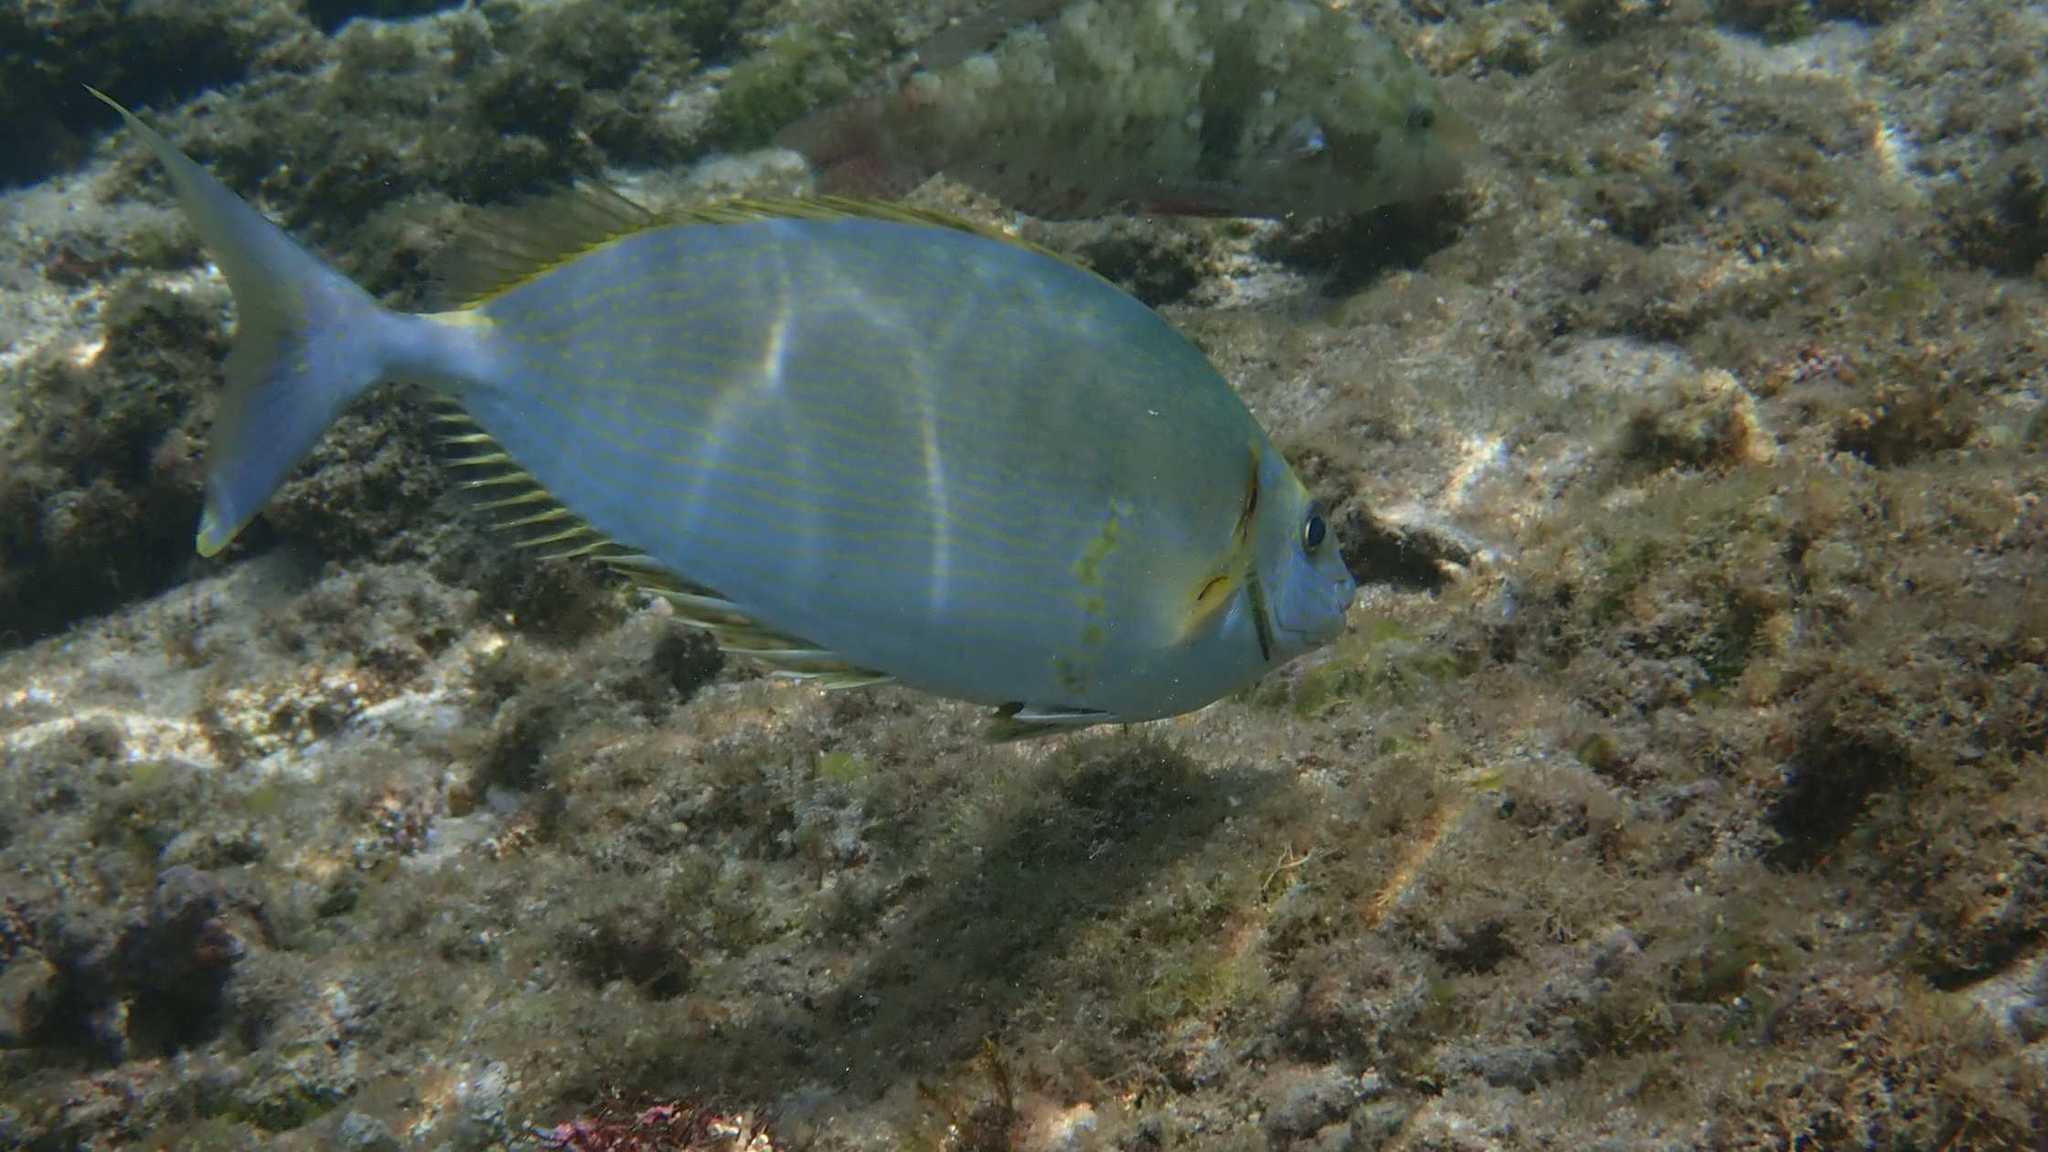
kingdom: Animalia
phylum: Chordata
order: Perciformes
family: Siganidae
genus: Siganus
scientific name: Siganus argenteus
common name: Forktail rabbitfish
